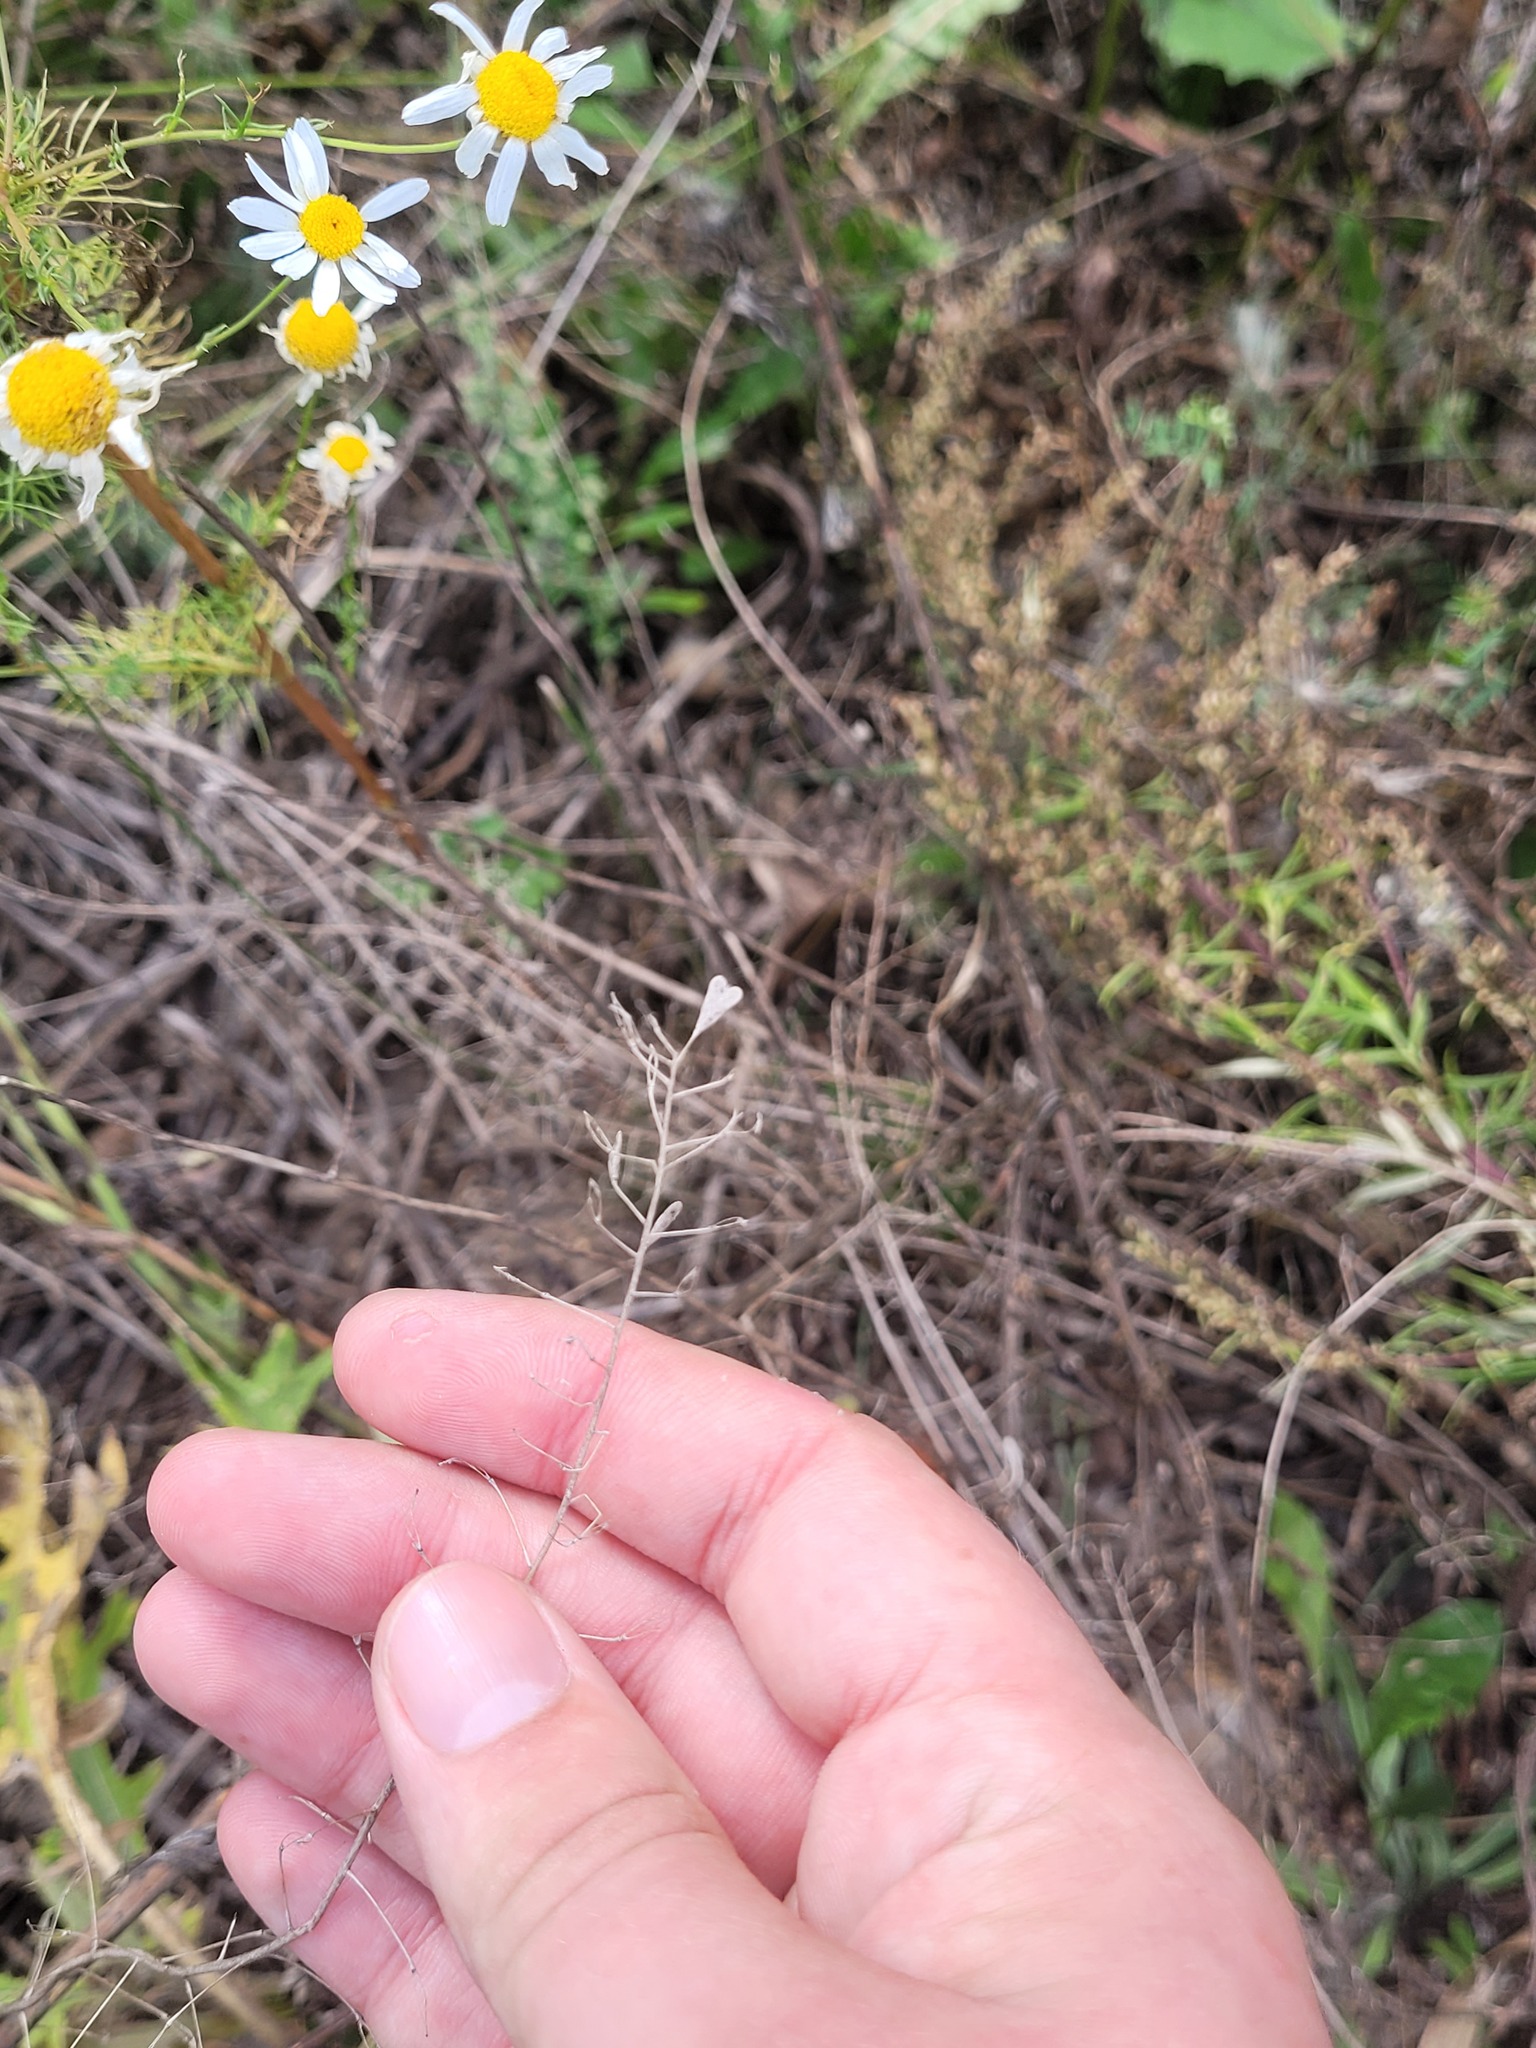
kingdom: Plantae
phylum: Tracheophyta
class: Magnoliopsida
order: Brassicales
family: Brassicaceae
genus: Capsella
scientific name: Capsella bursa-pastoris
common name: Shepherd's purse
